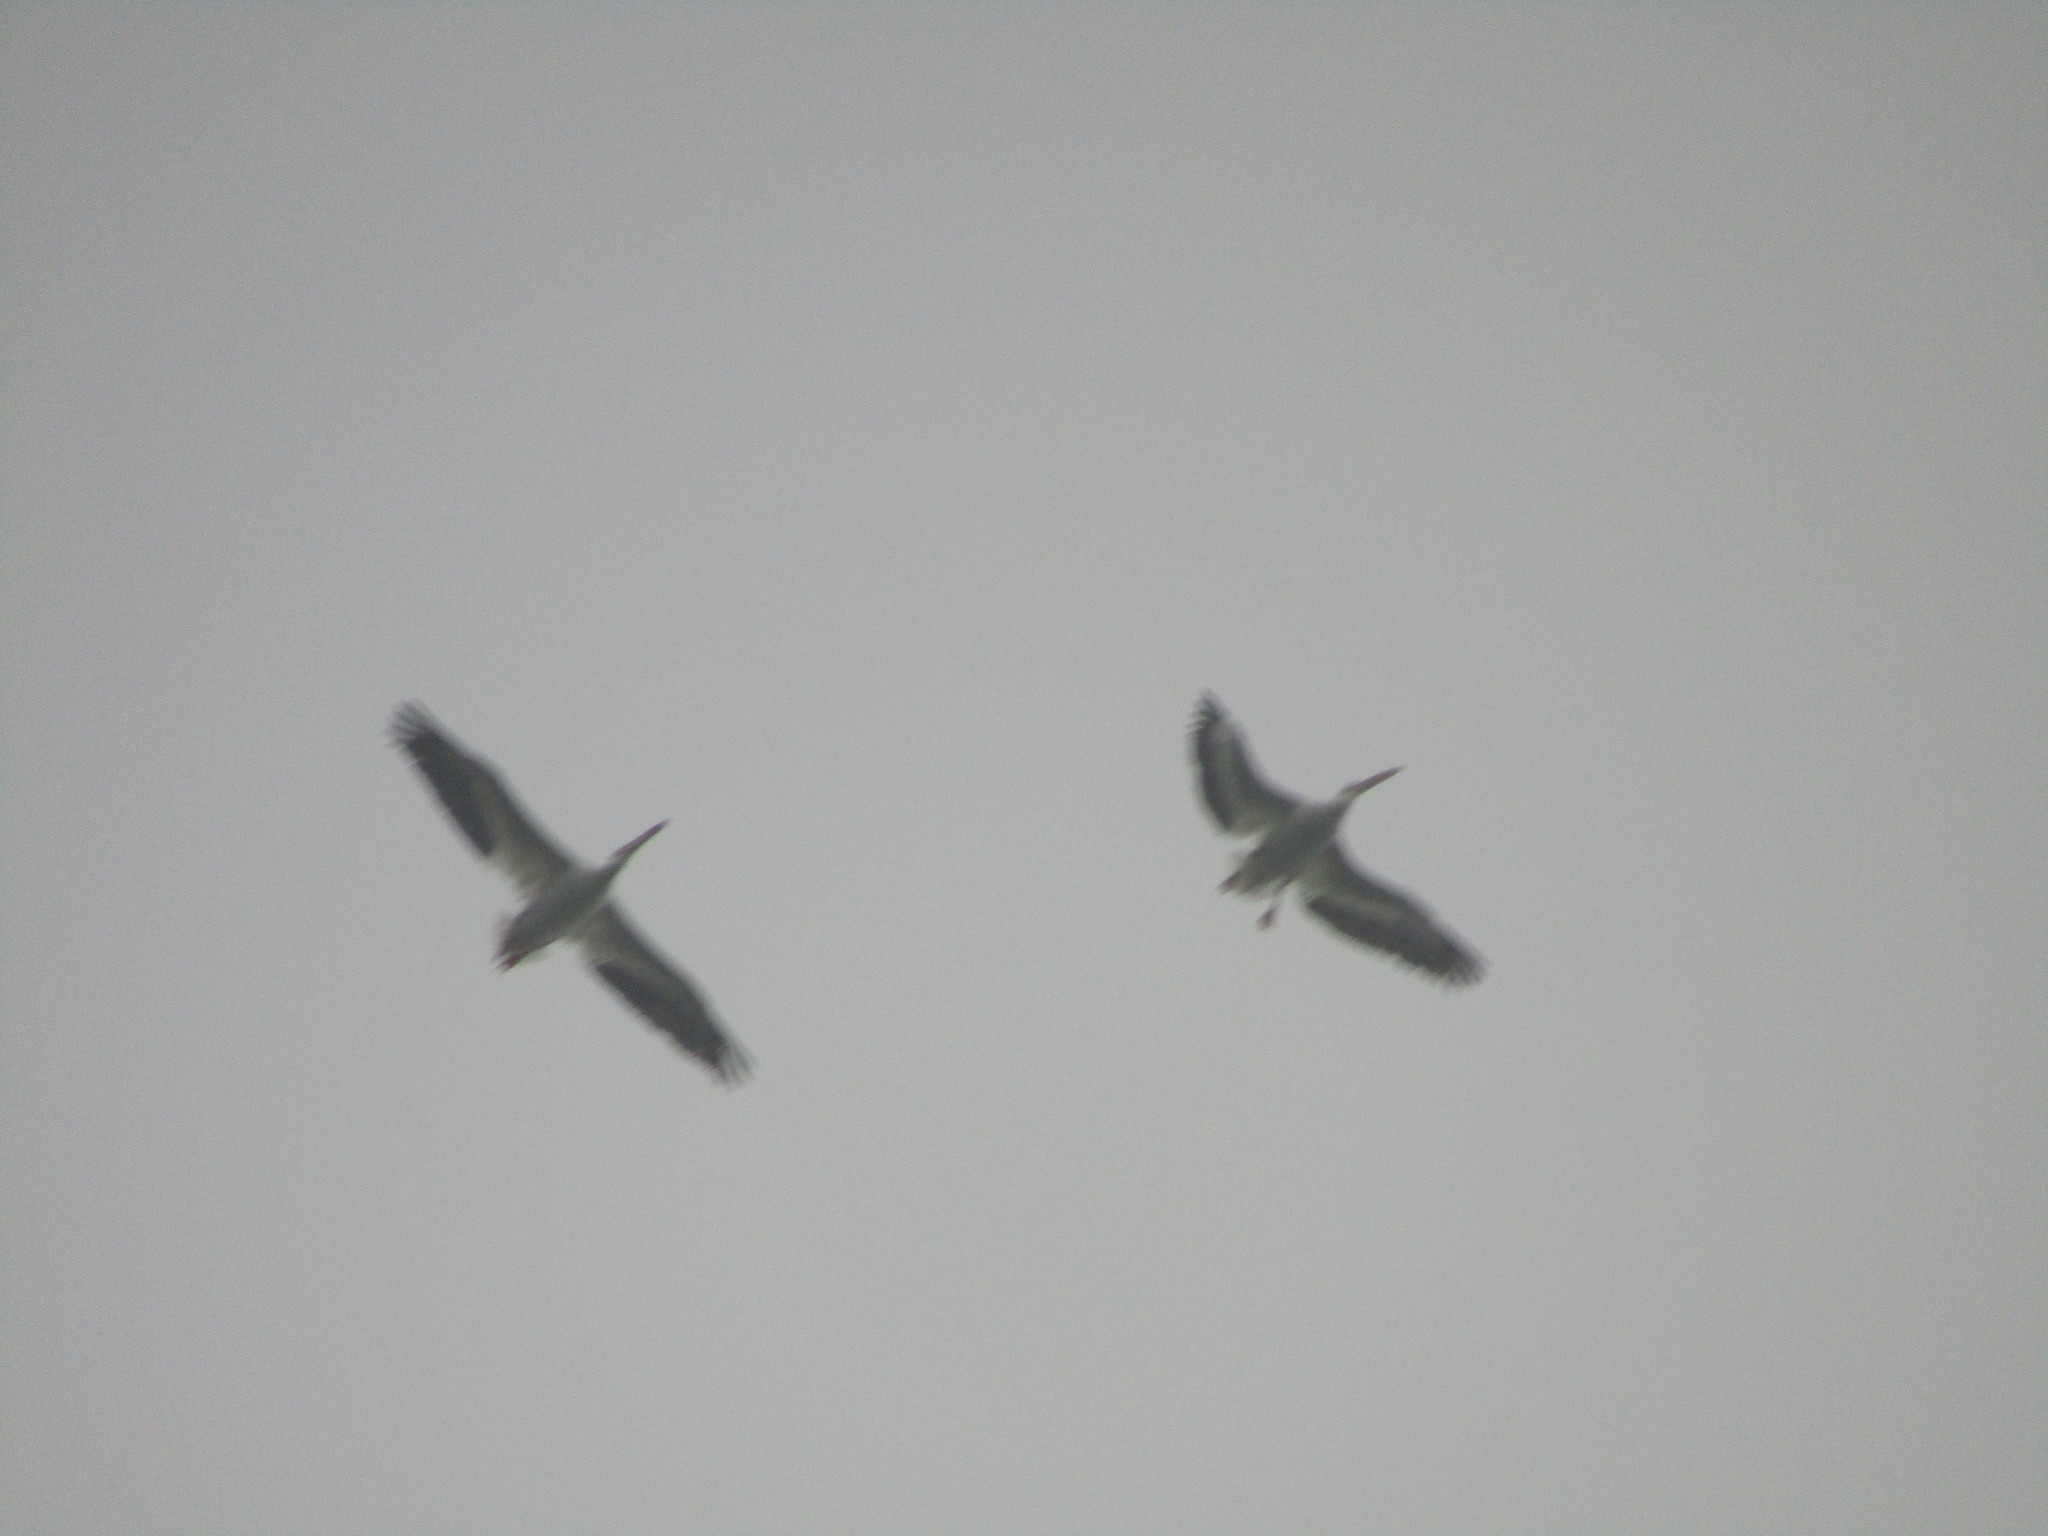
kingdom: Animalia
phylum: Chordata
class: Aves
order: Pelecaniformes
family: Pelecanidae
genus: Pelecanus
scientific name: Pelecanus erythrorhynchos
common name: American white pelican
